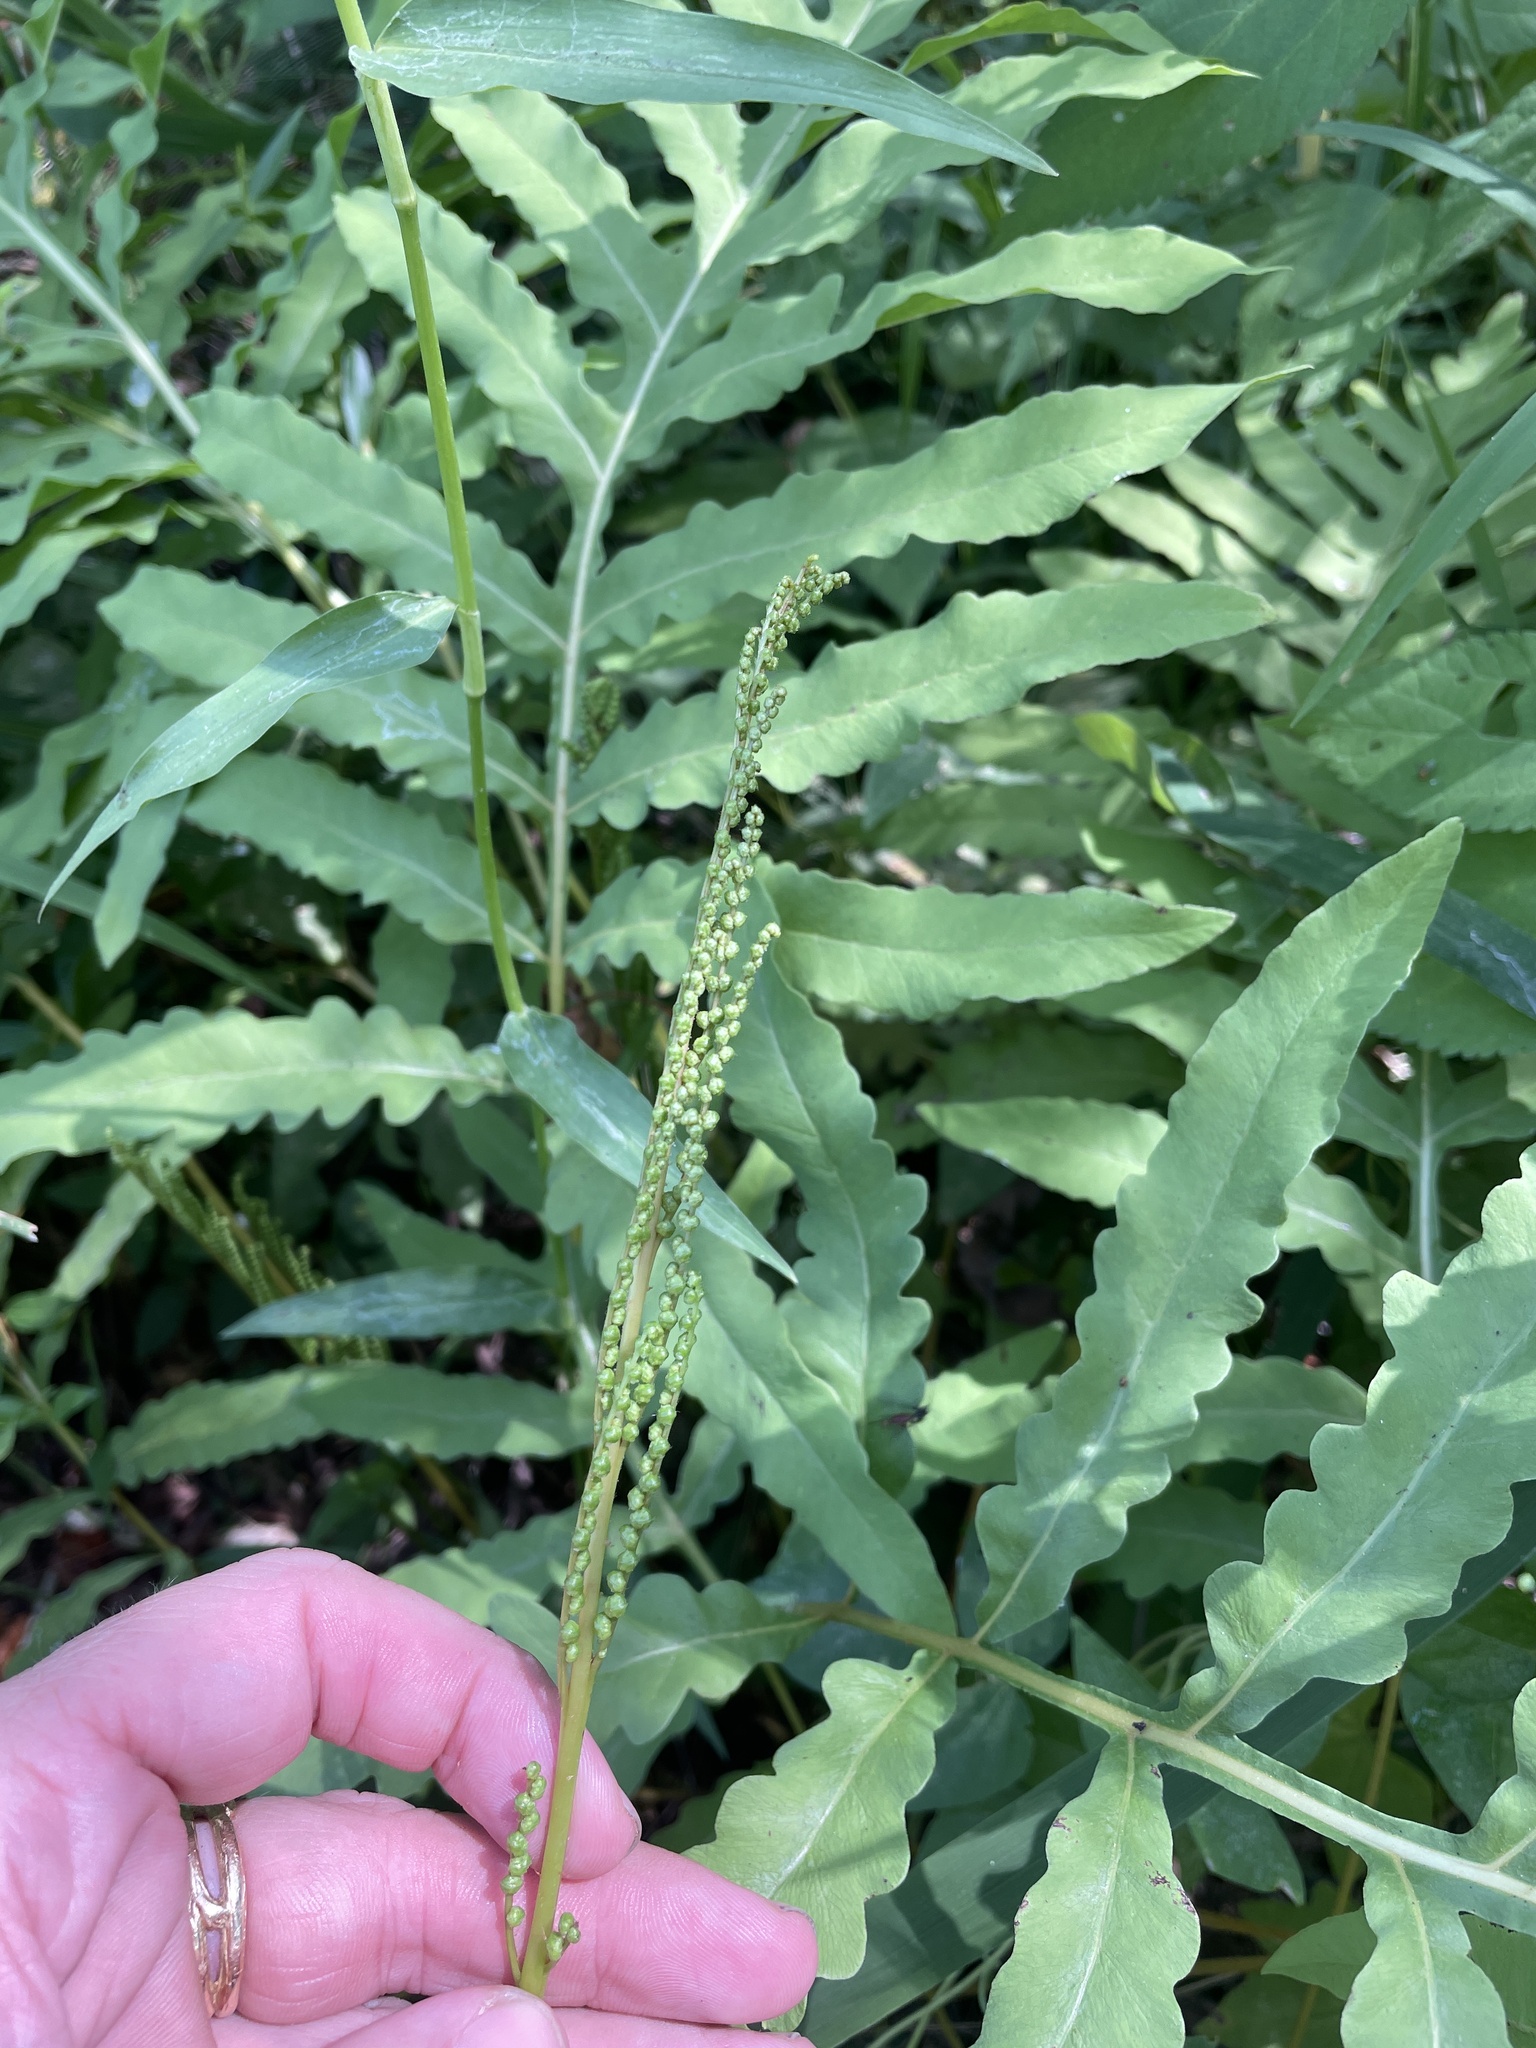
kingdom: Plantae
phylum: Tracheophyta
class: Polypodiopsida
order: Polypodiales
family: Onocleaceae
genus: Onoclea
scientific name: Onoclea sensibilis
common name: Sensitive fern
